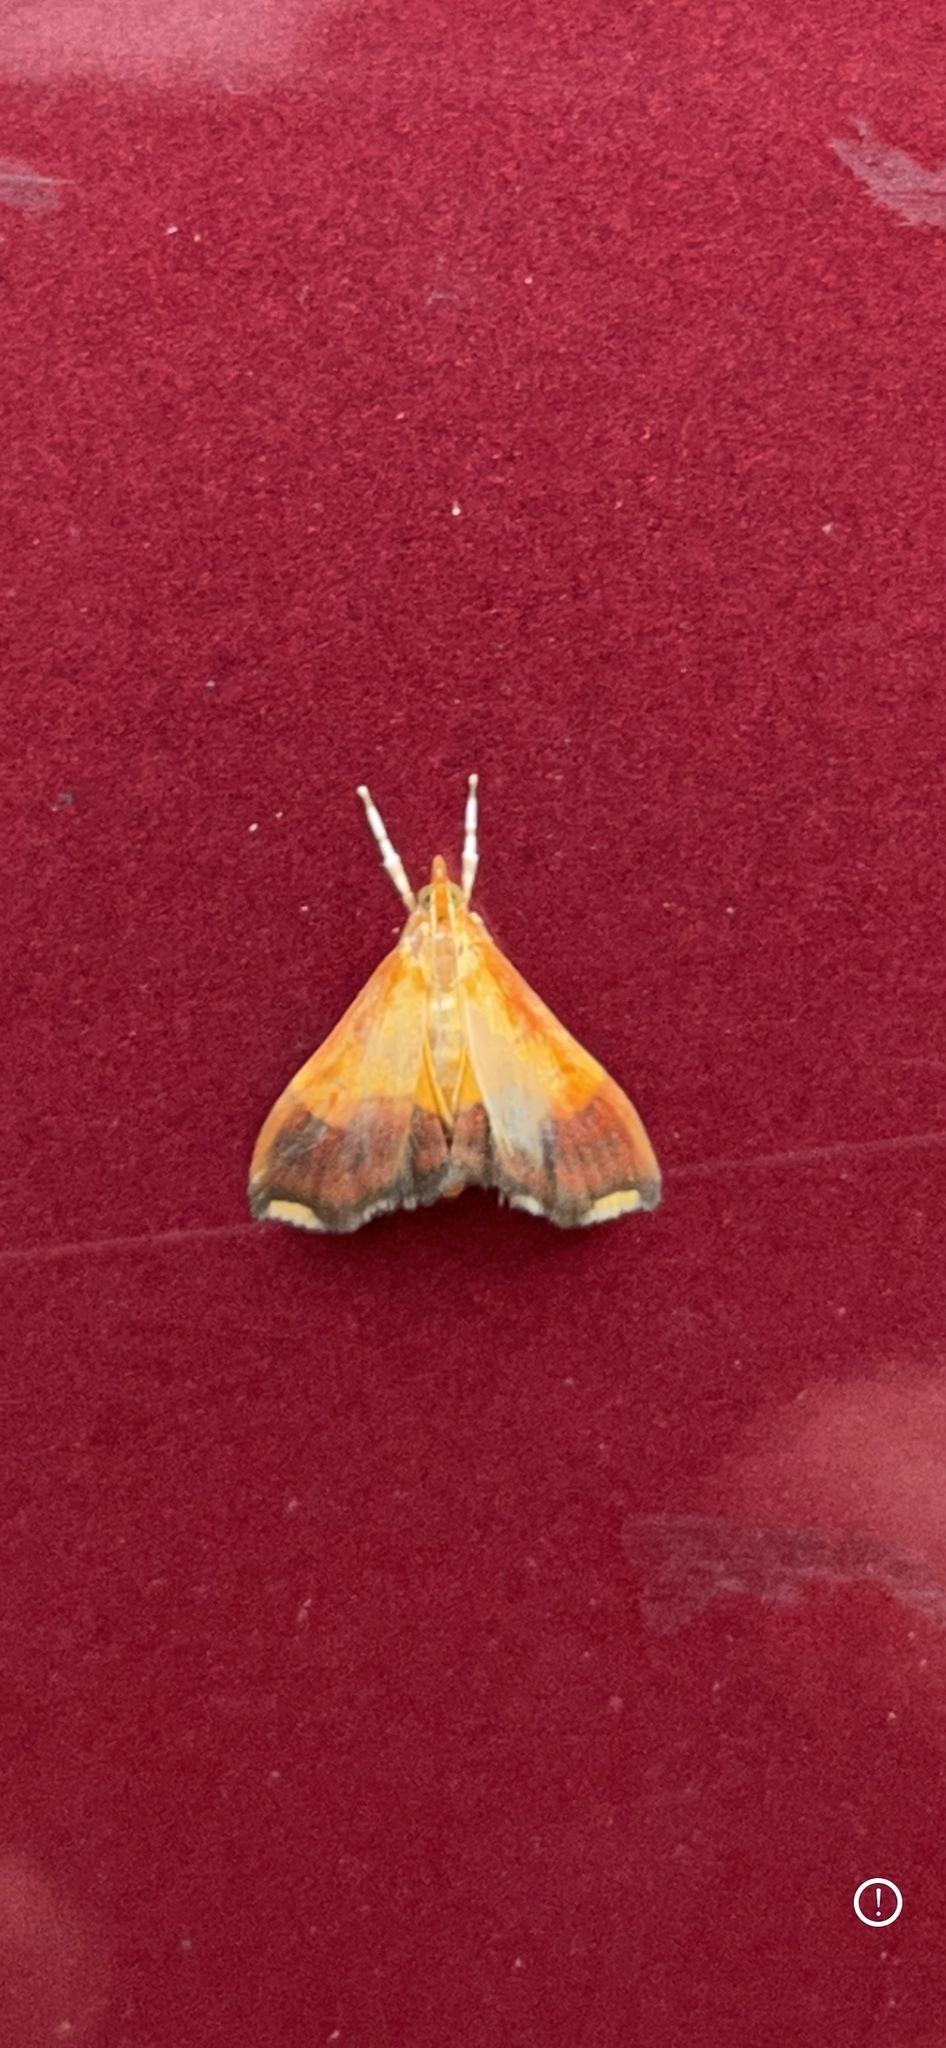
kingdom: Animalia
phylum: Arthropoda
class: Insecta
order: Lepidoptera
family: Crambidae
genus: Pyrausta
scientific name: Pyrausta bicoloralis
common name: Bicolored pyrausta moth
